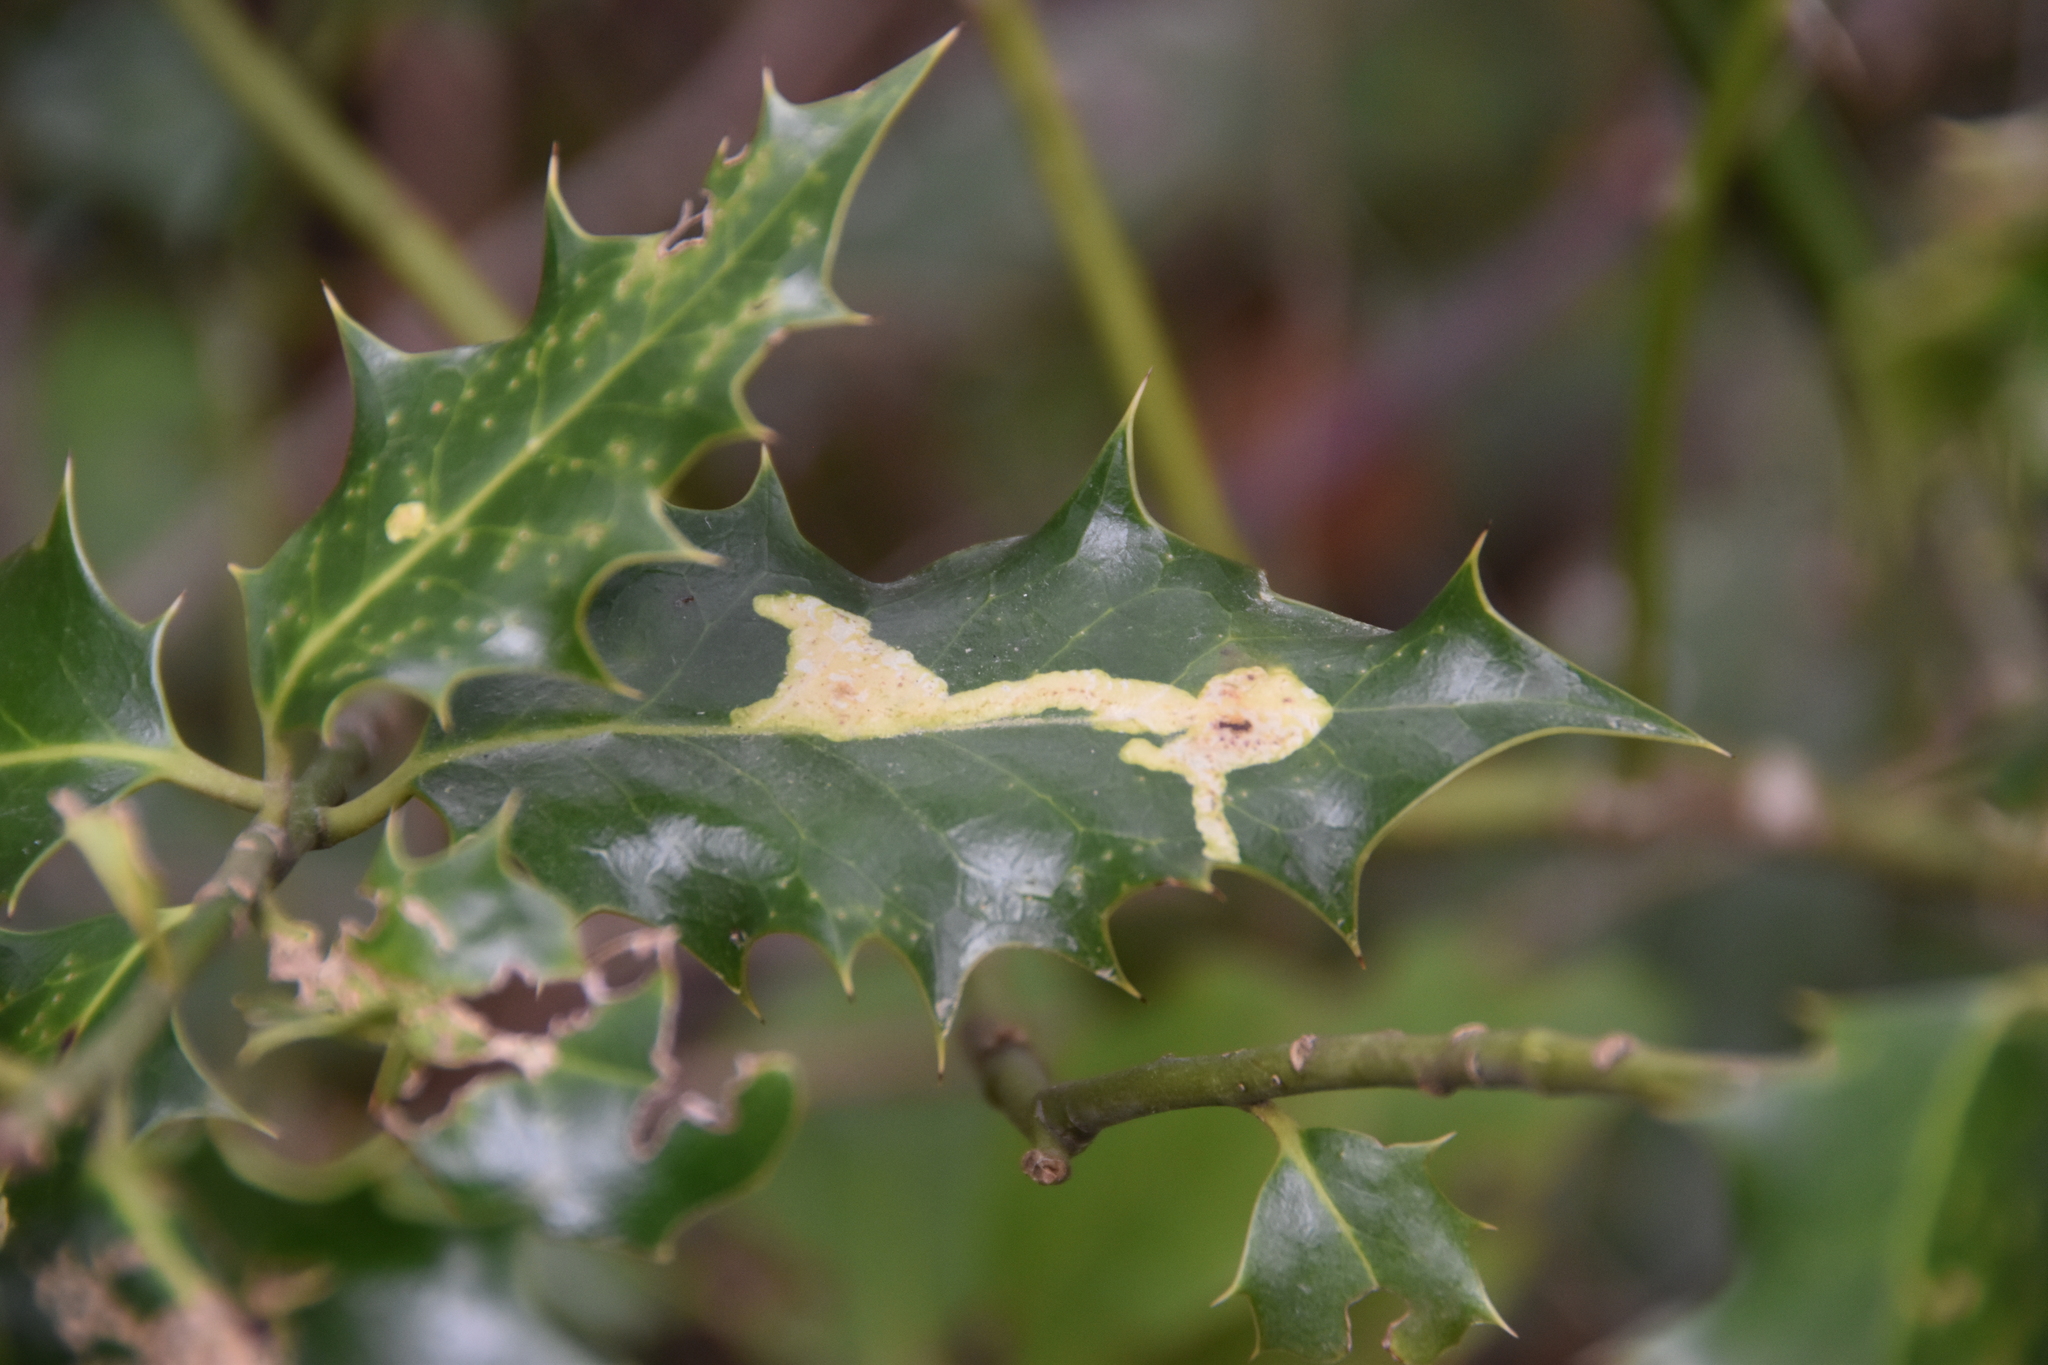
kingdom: Animalia
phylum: Arthropoda
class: Insecta
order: Diptera
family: Agromyzidae
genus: Phytomyza
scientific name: Phytomyza ilicis
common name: Holly leafminer
